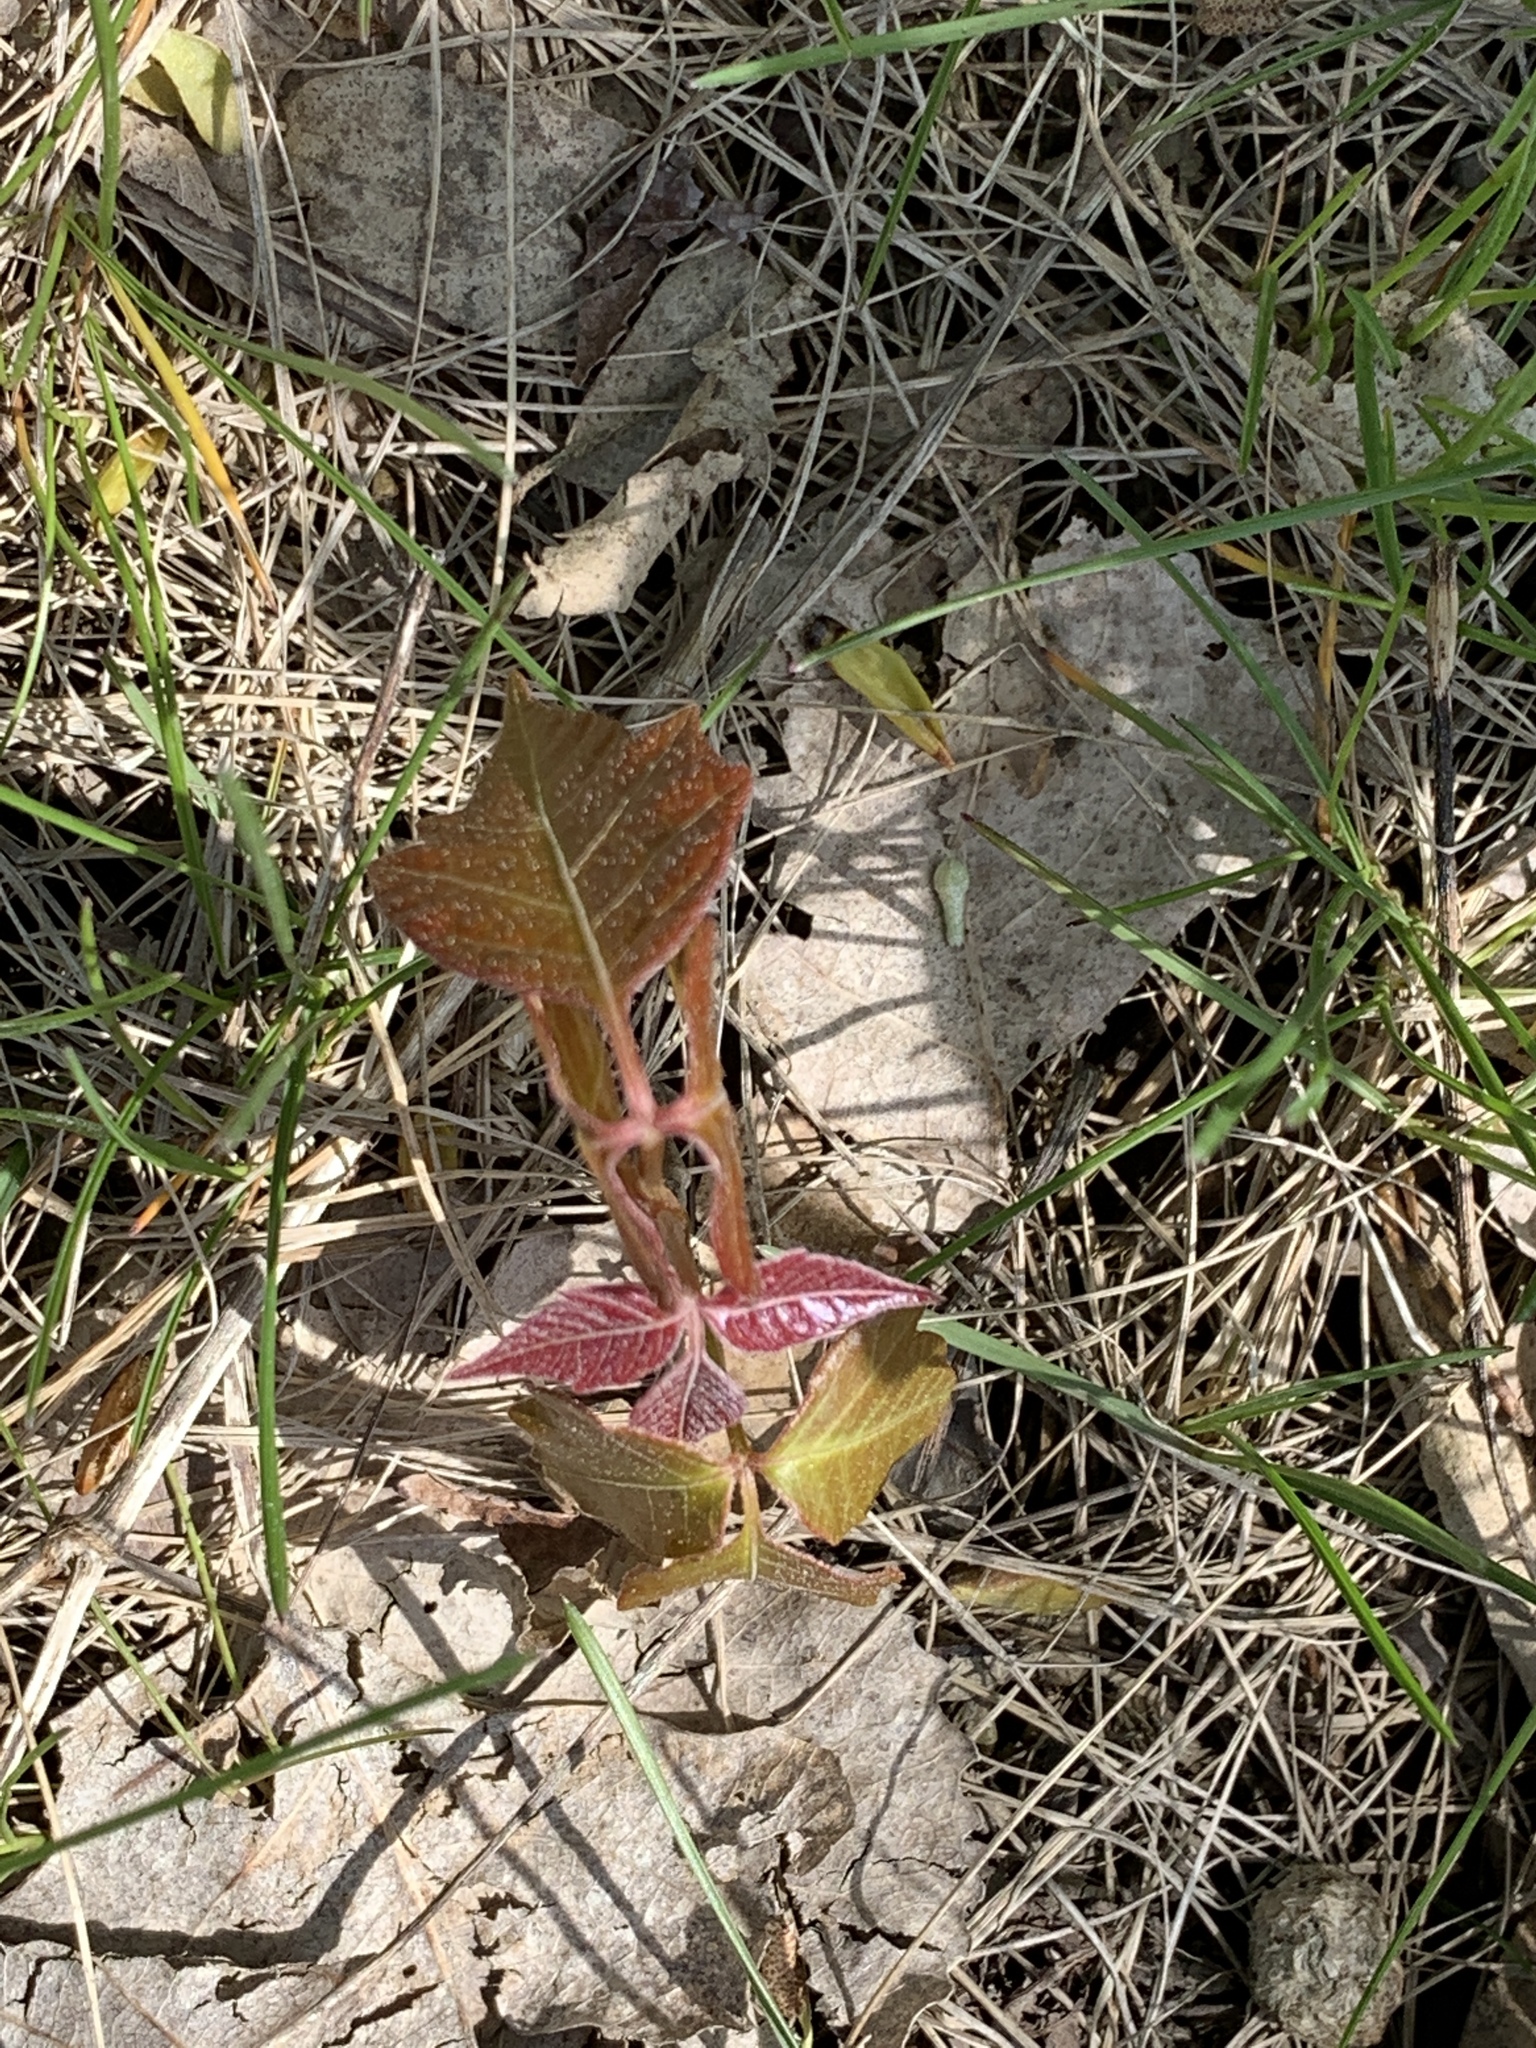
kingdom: Plantae
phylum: Tracheophyta
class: Magnoliopsida
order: Sapindales
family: Anacardiaceae
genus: Toxicodendron
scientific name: Toxicodendron radicans
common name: Poison ivy
